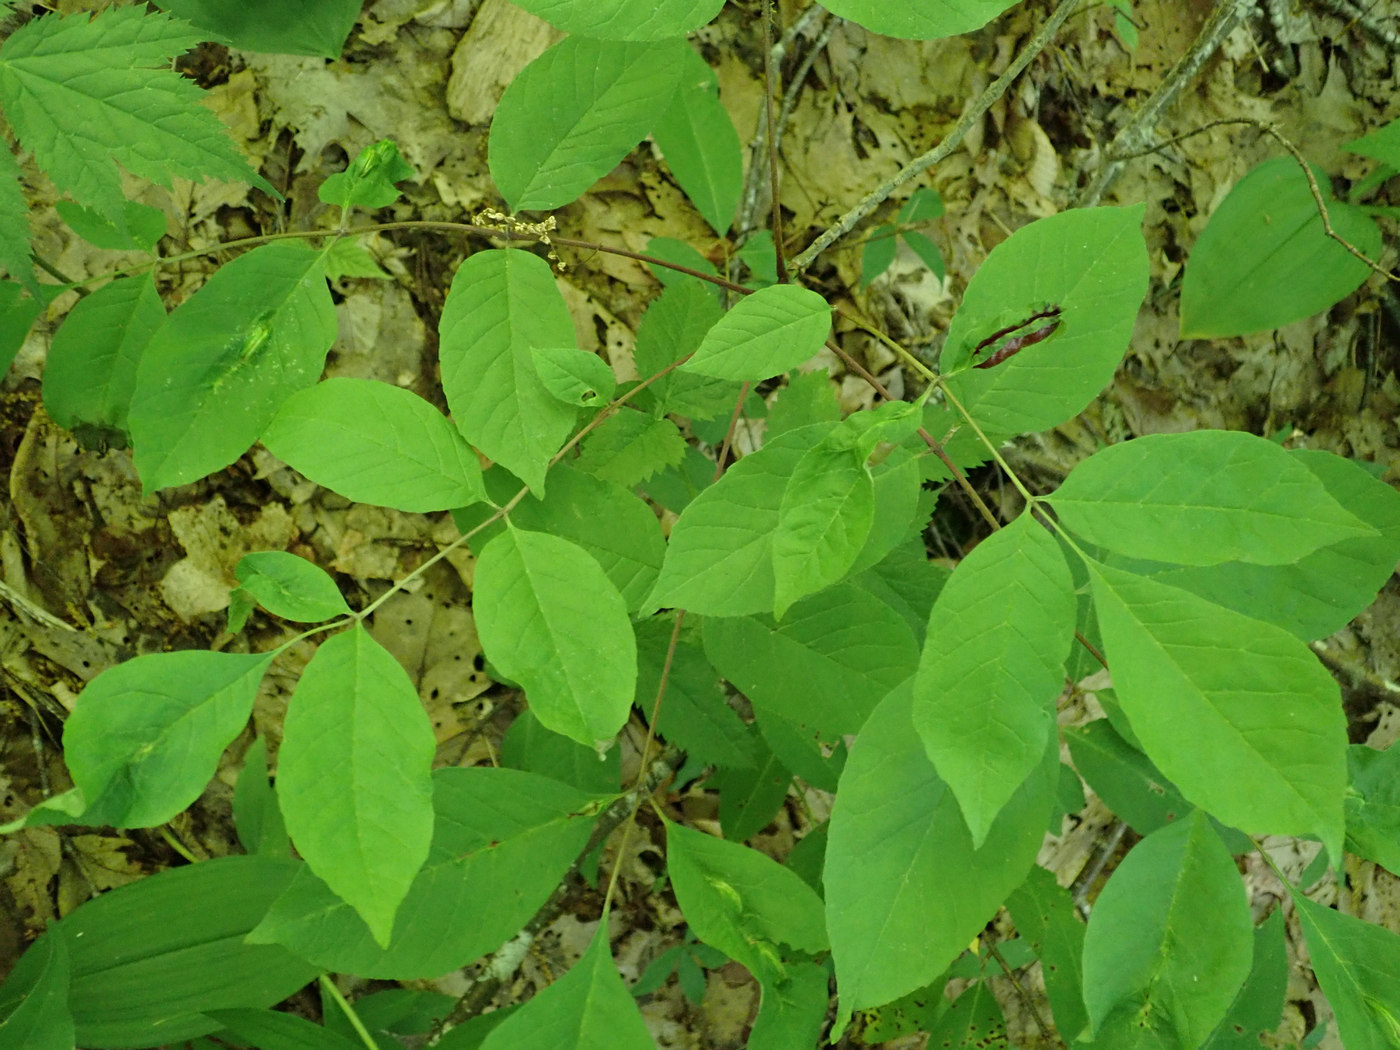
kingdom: Animalia
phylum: Arthropoda
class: Insecta
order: Diptera
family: Cecidomyiidae
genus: Dasineura
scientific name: Dasineura tumidosae
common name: Ash petiole gall midge
